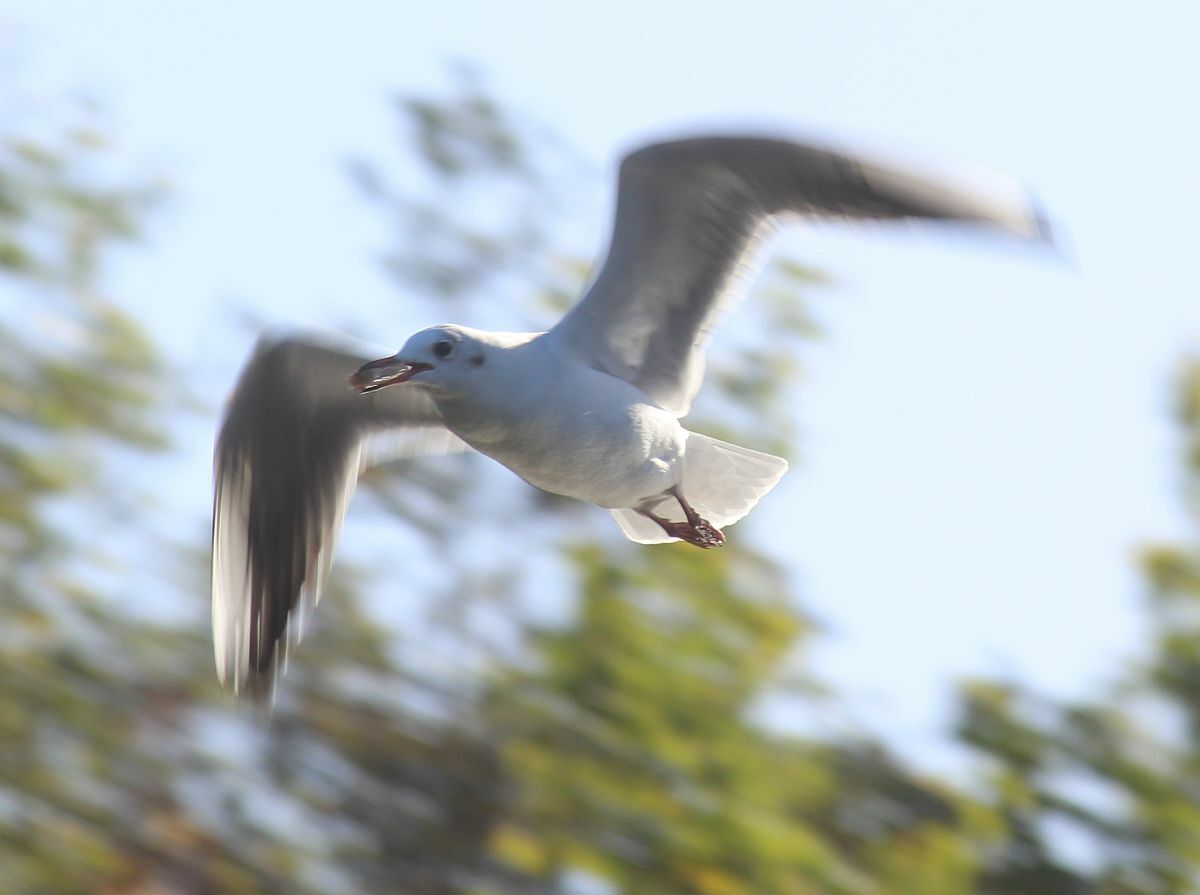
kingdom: Animalia
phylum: Chordata
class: Aves
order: Charadriiformes
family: Laridae
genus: Chroicocephalus
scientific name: Chroicocephalus ridibundus
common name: Black-headed gull
